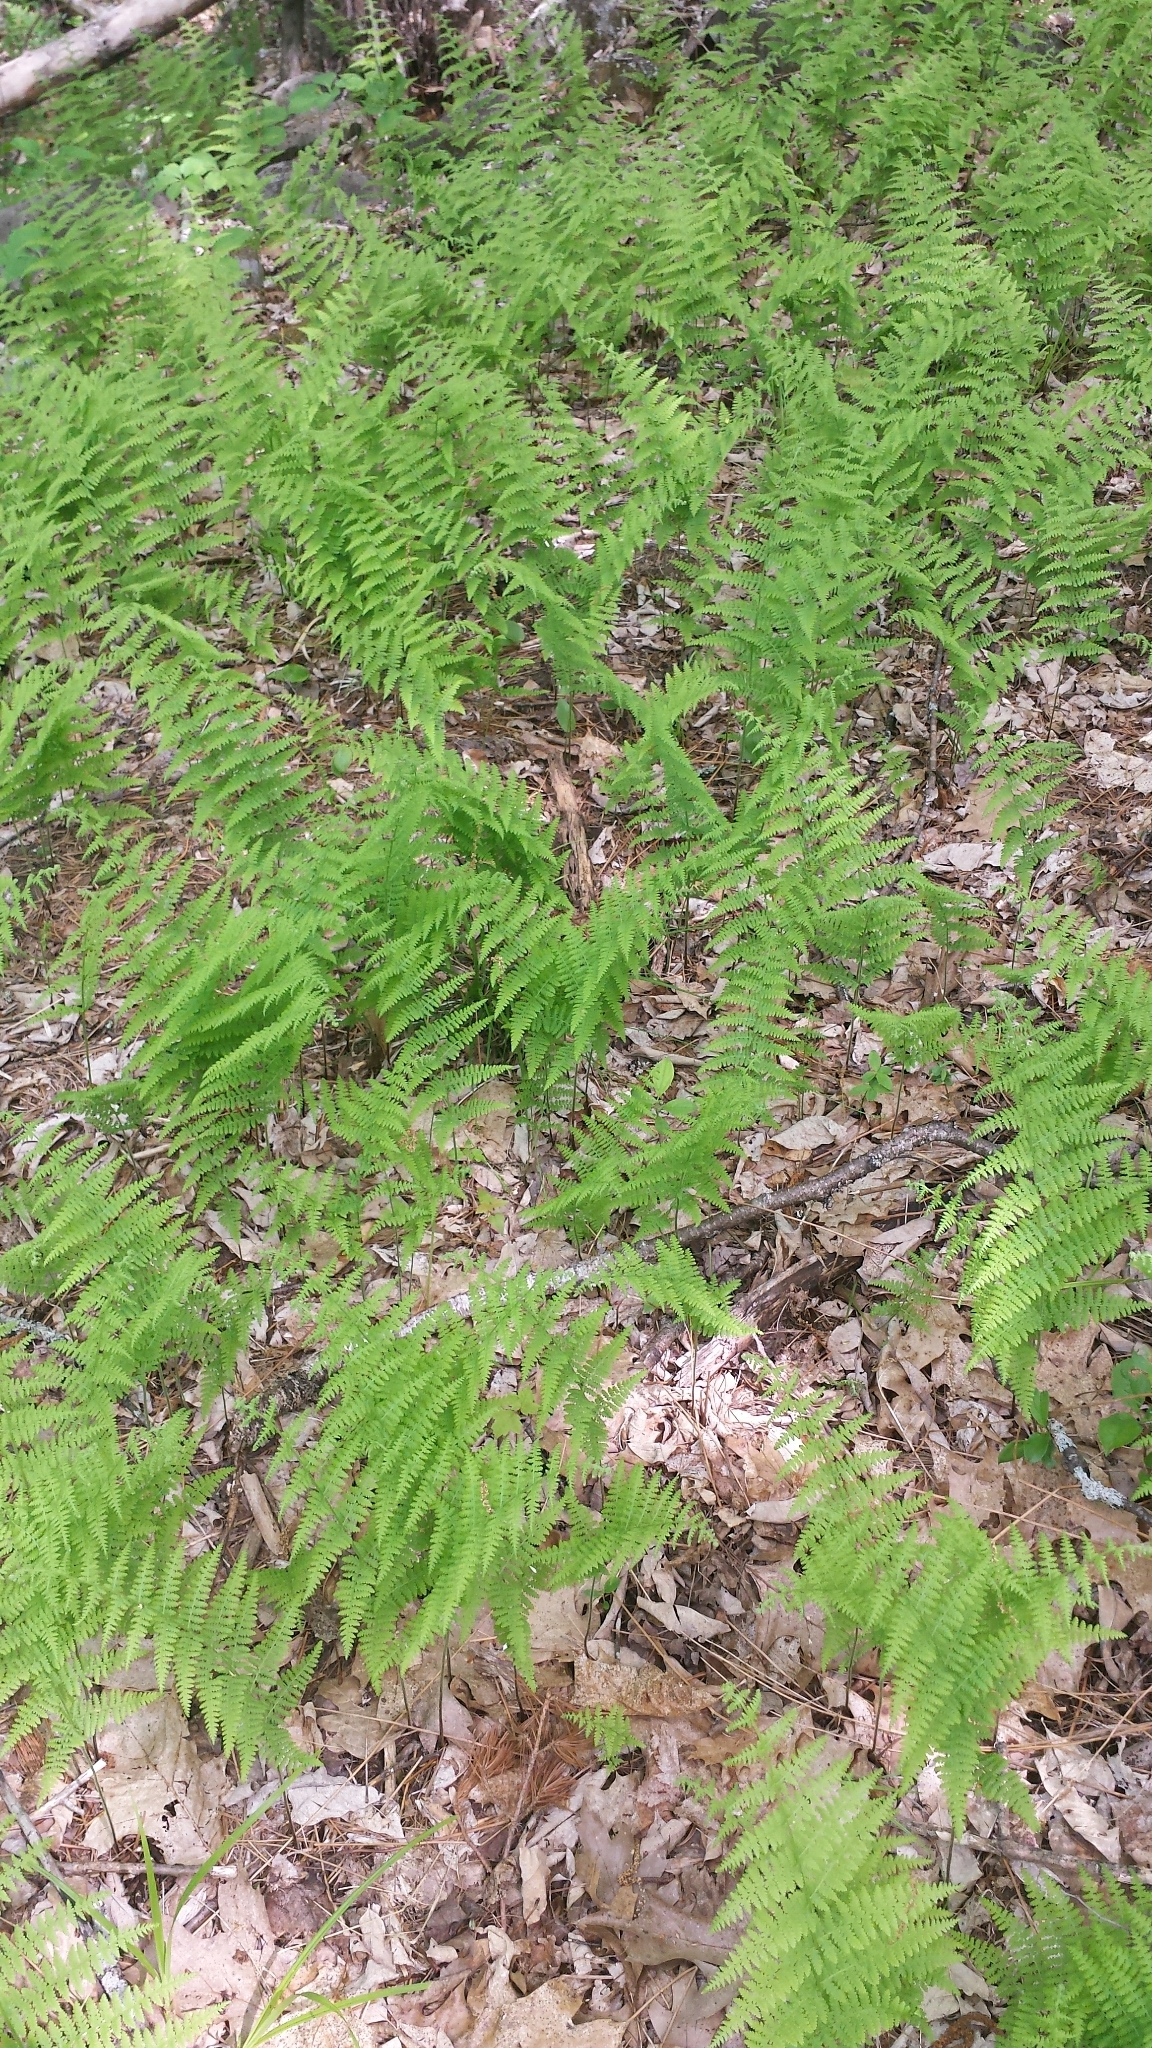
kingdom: Plantae
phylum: Tracheophyta
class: Polypodiopsida
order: Polypodiales
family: Dennstaedtiaceae
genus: Sitobolium
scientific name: Sitobolium punctilobum
